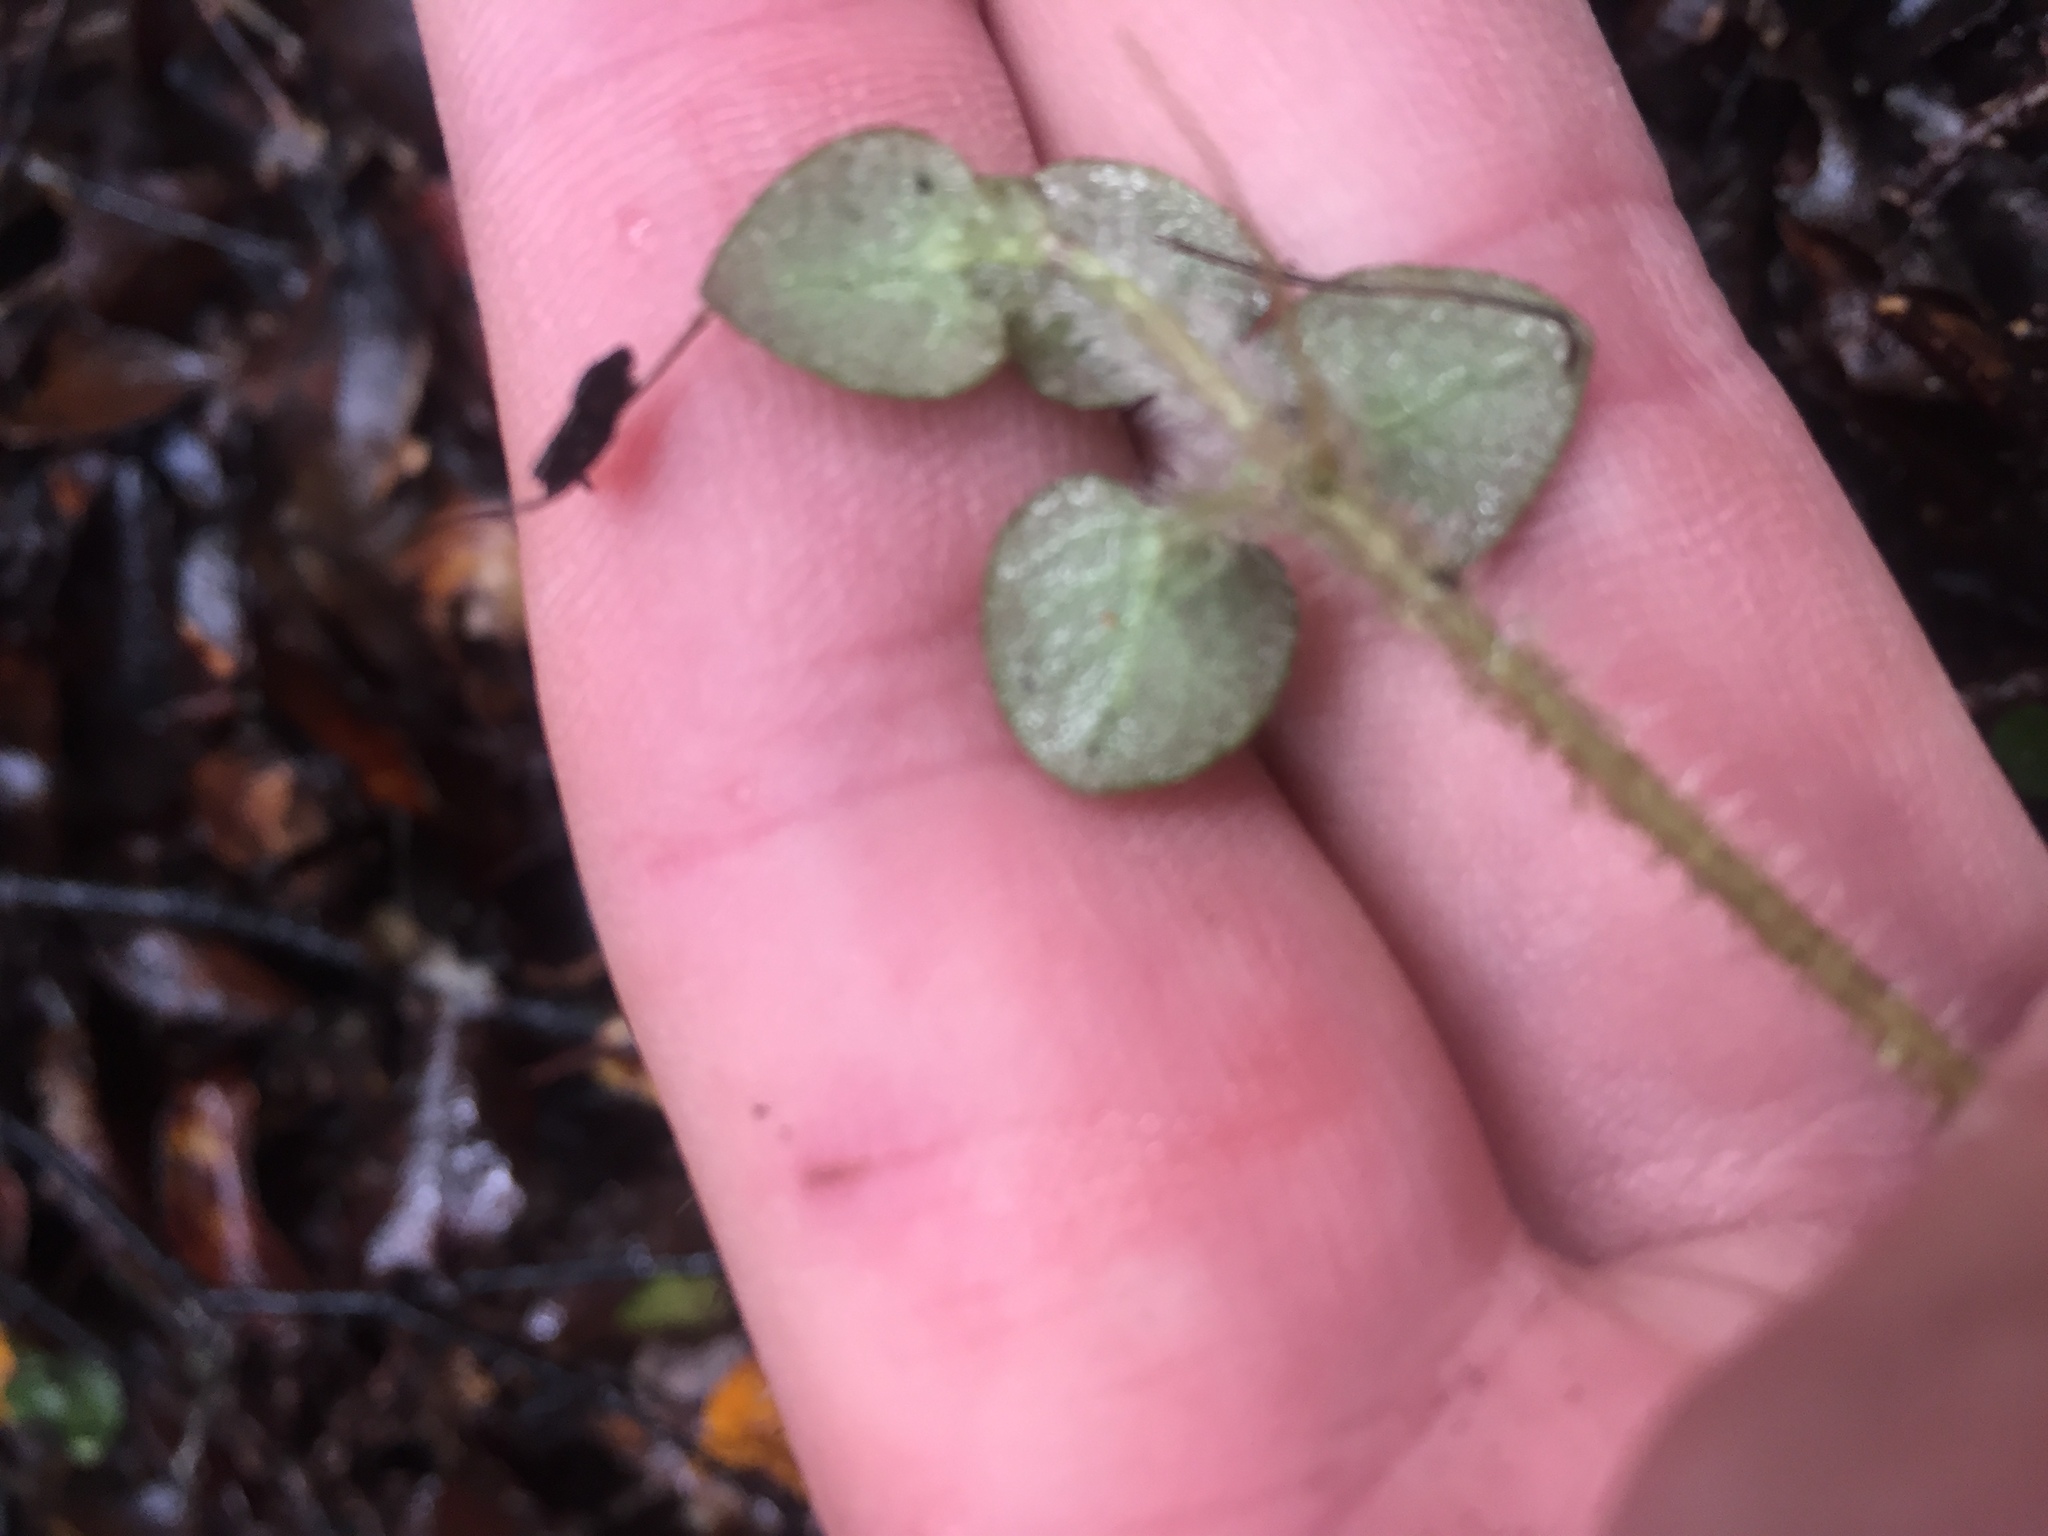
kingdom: Plantae
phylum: Tracheophyta
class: Magnoliopsida
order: Gentianales
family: Rubiaceae
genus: Nertera
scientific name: Nertera villosa
